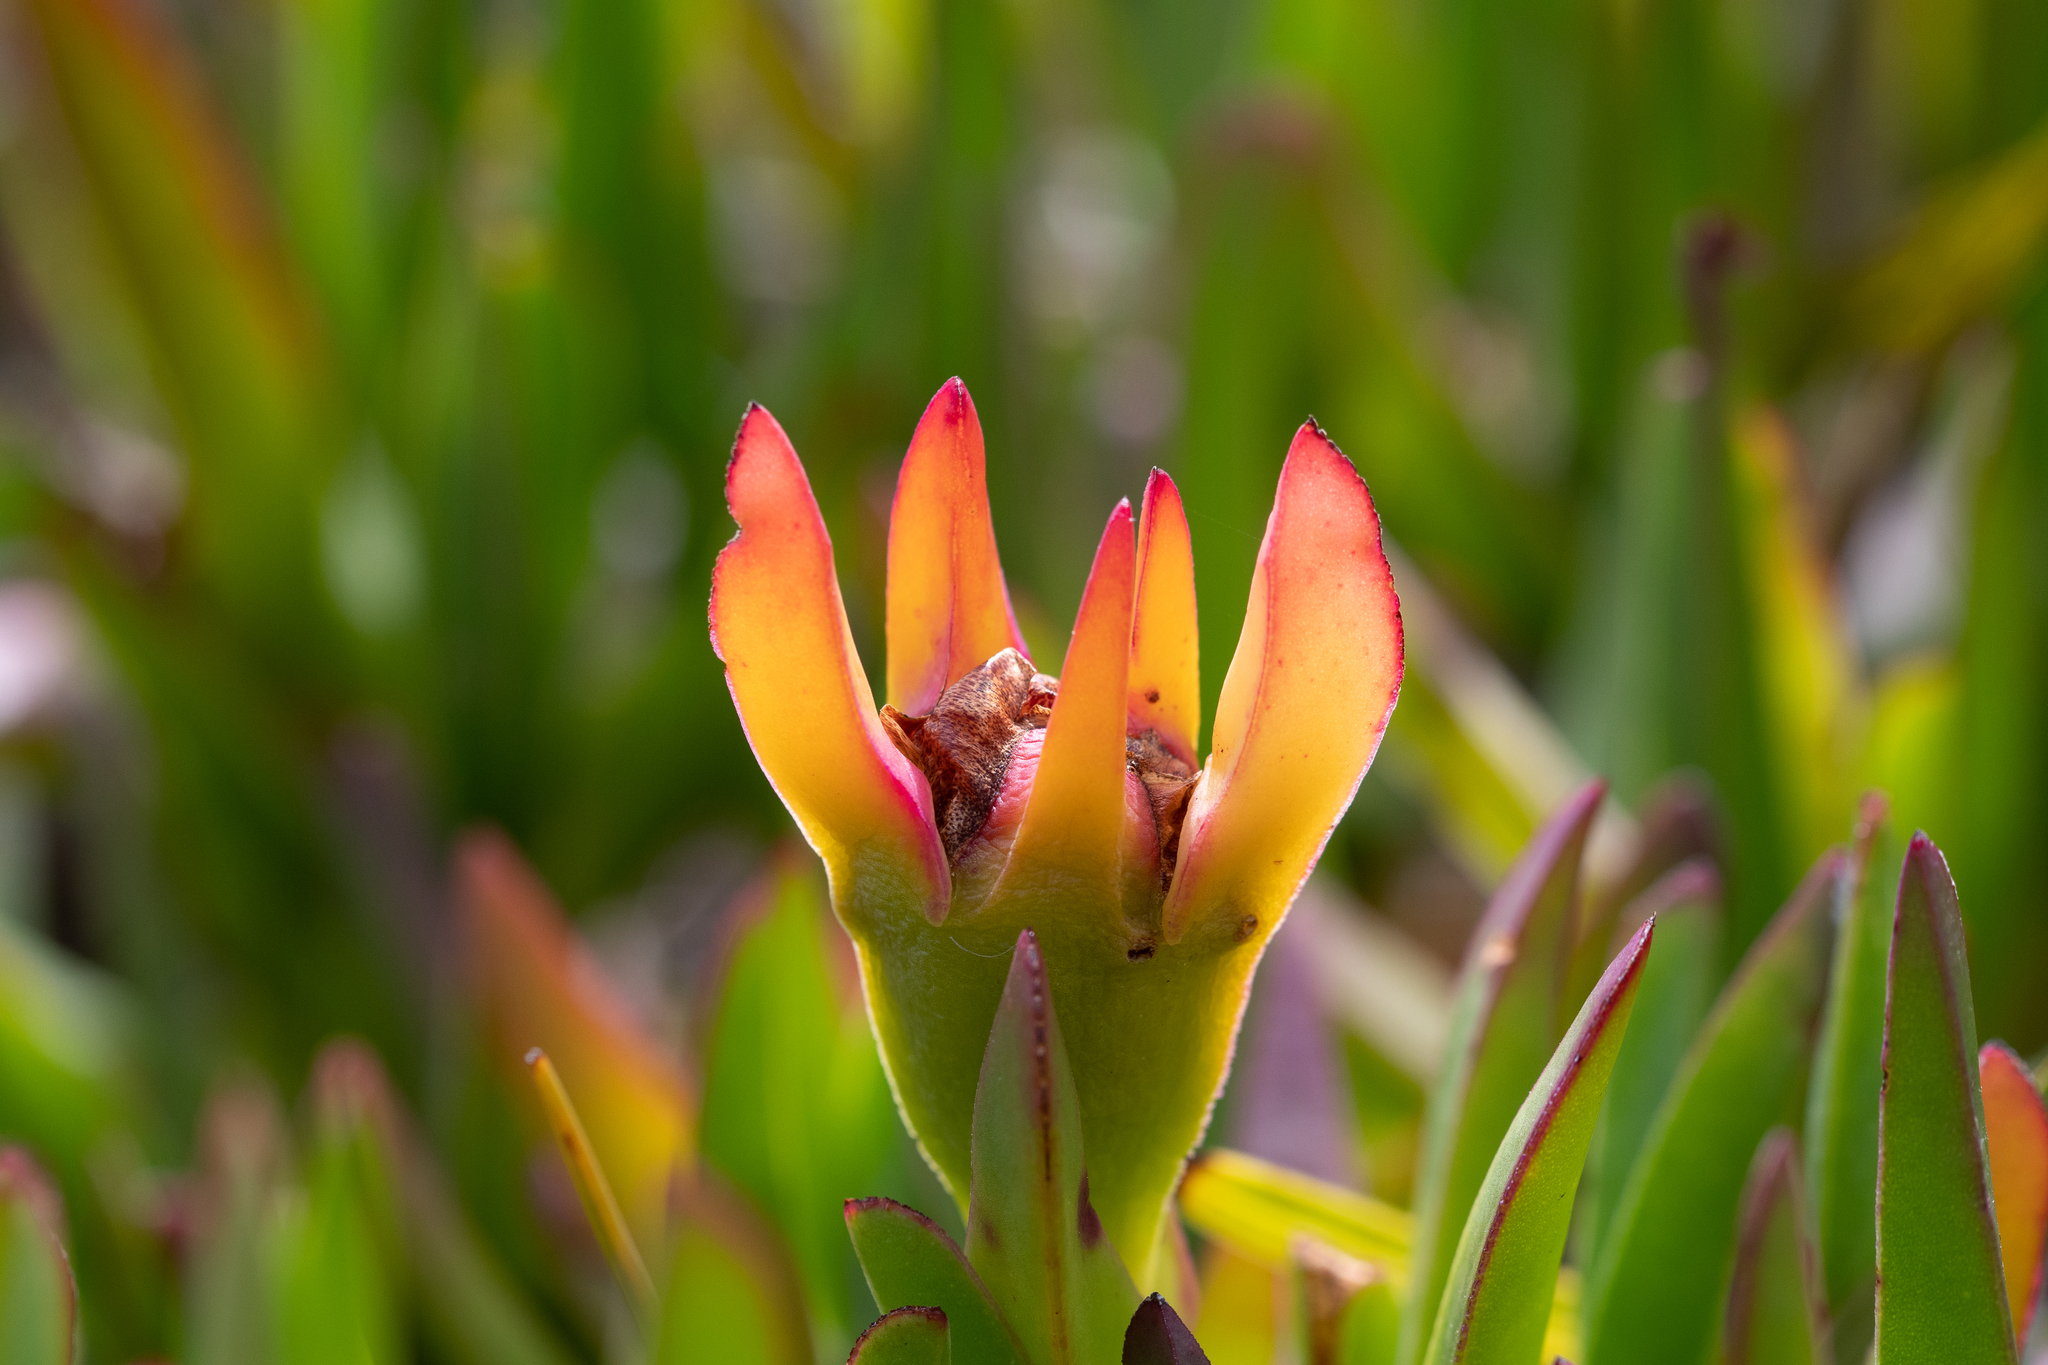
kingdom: Plantae
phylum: Tracheophyta
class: Magnoliopsida
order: Caryophyllales
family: Aizoaceae
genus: Carpobrotus
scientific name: Carpobrotus edulis
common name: Hottentot-fig
